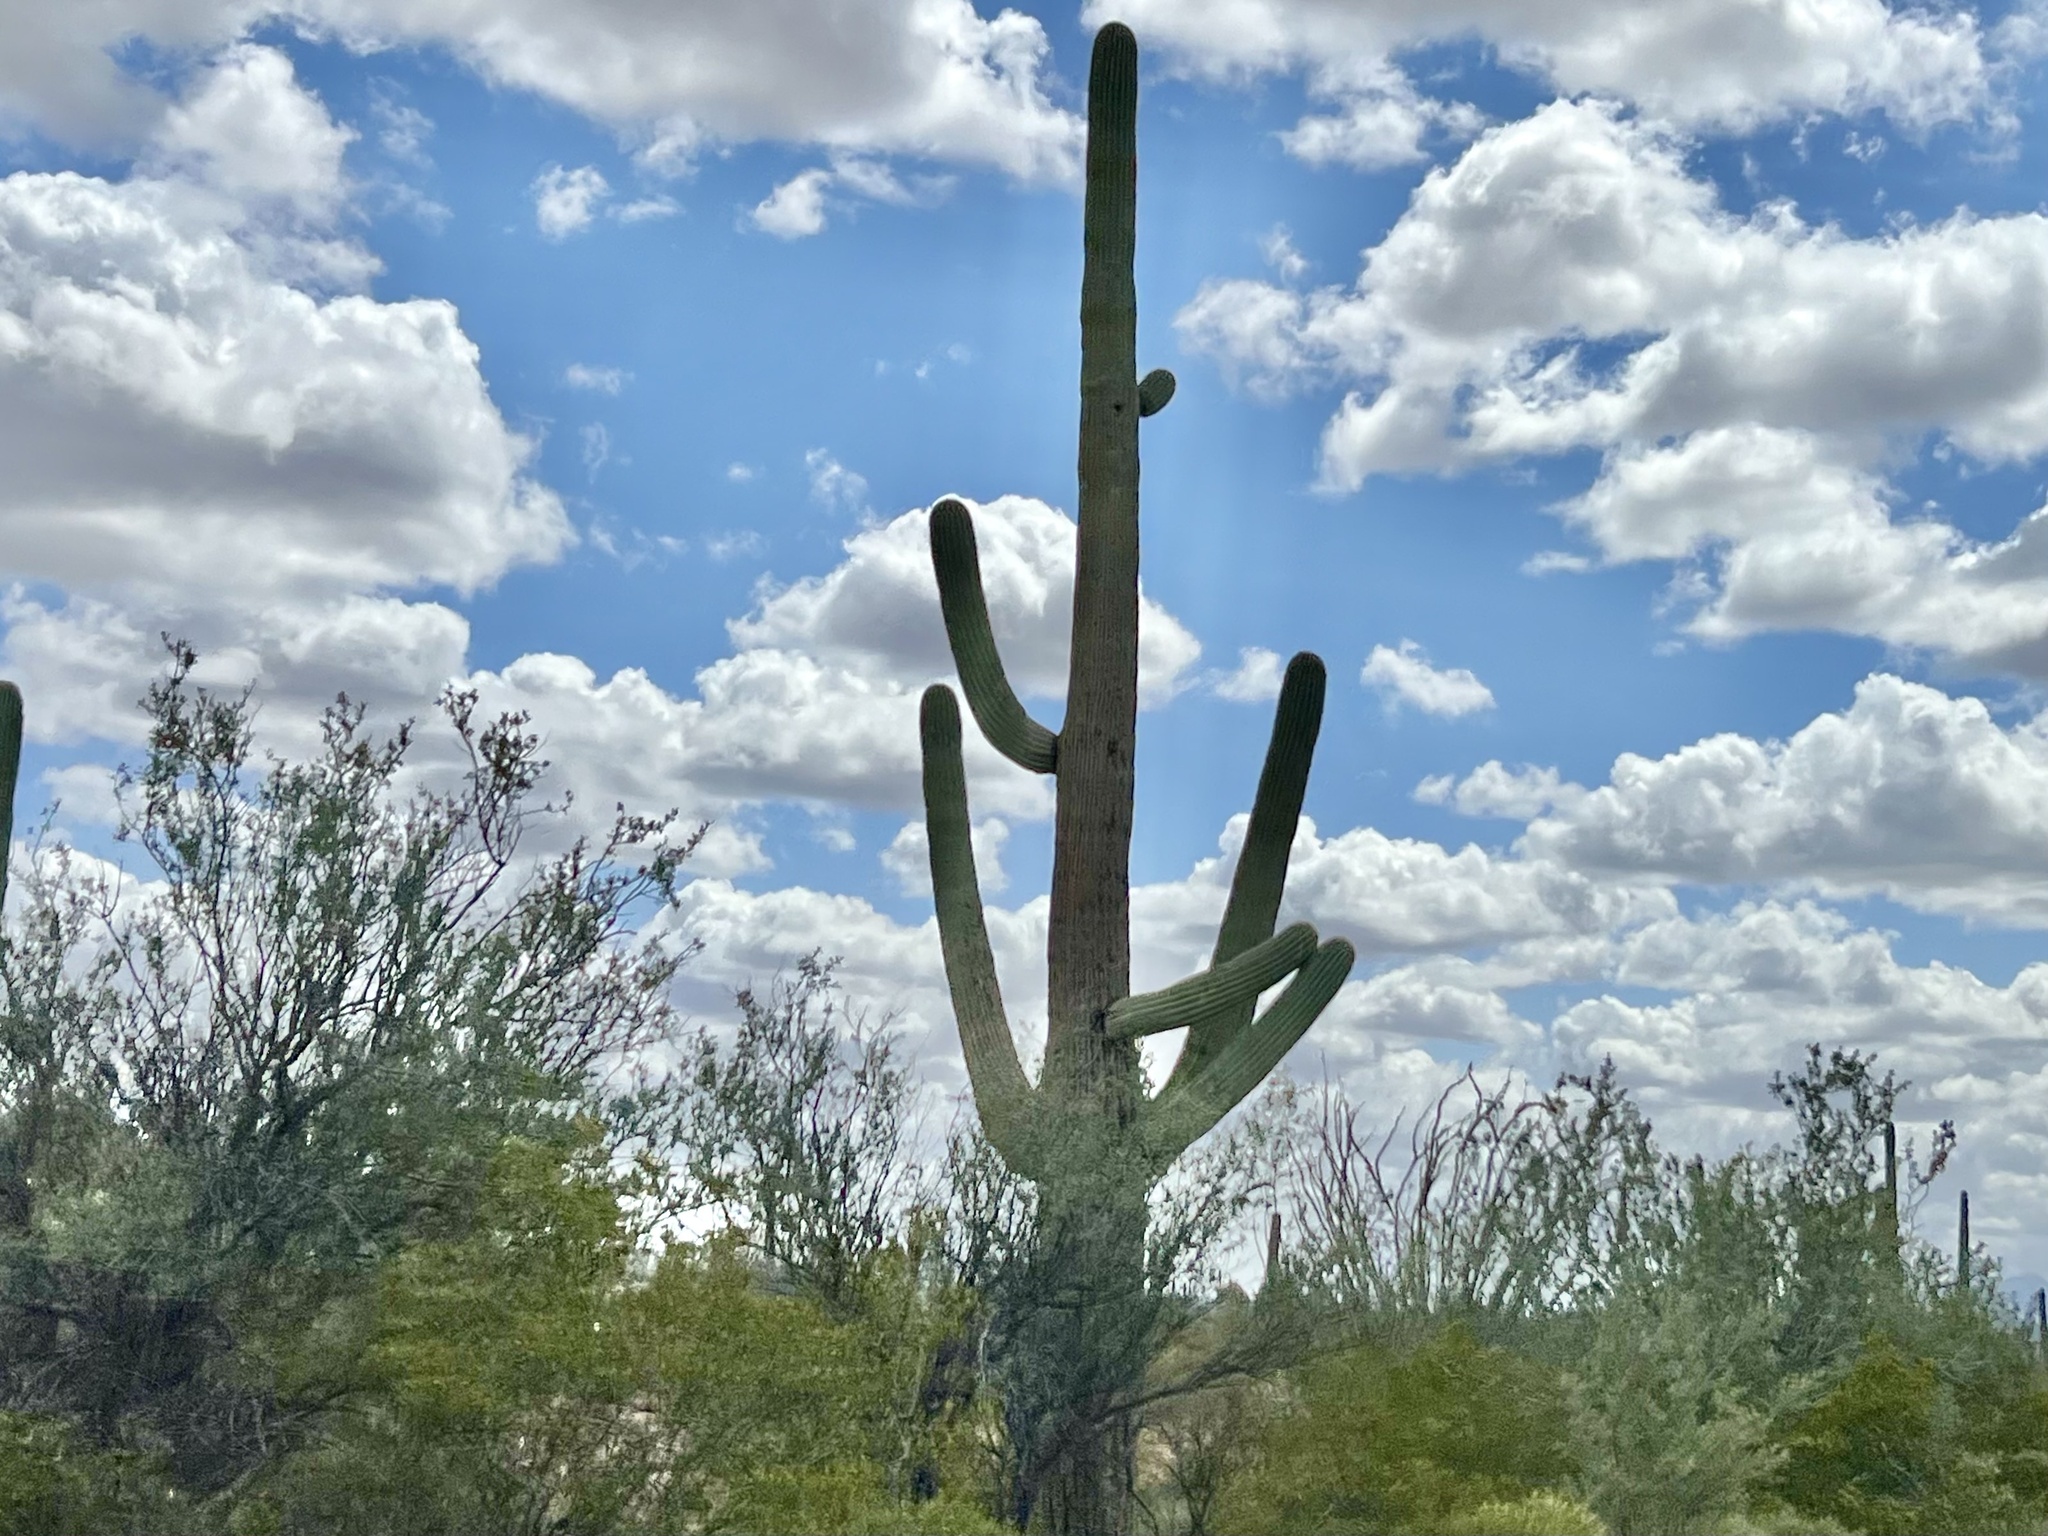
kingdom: Plantae
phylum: Tracheophyta
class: Magnoliopsida
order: Caryophyllales
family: Cactaceae
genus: Carnegiea
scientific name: Carnegiea gigantea
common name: Saguaro
